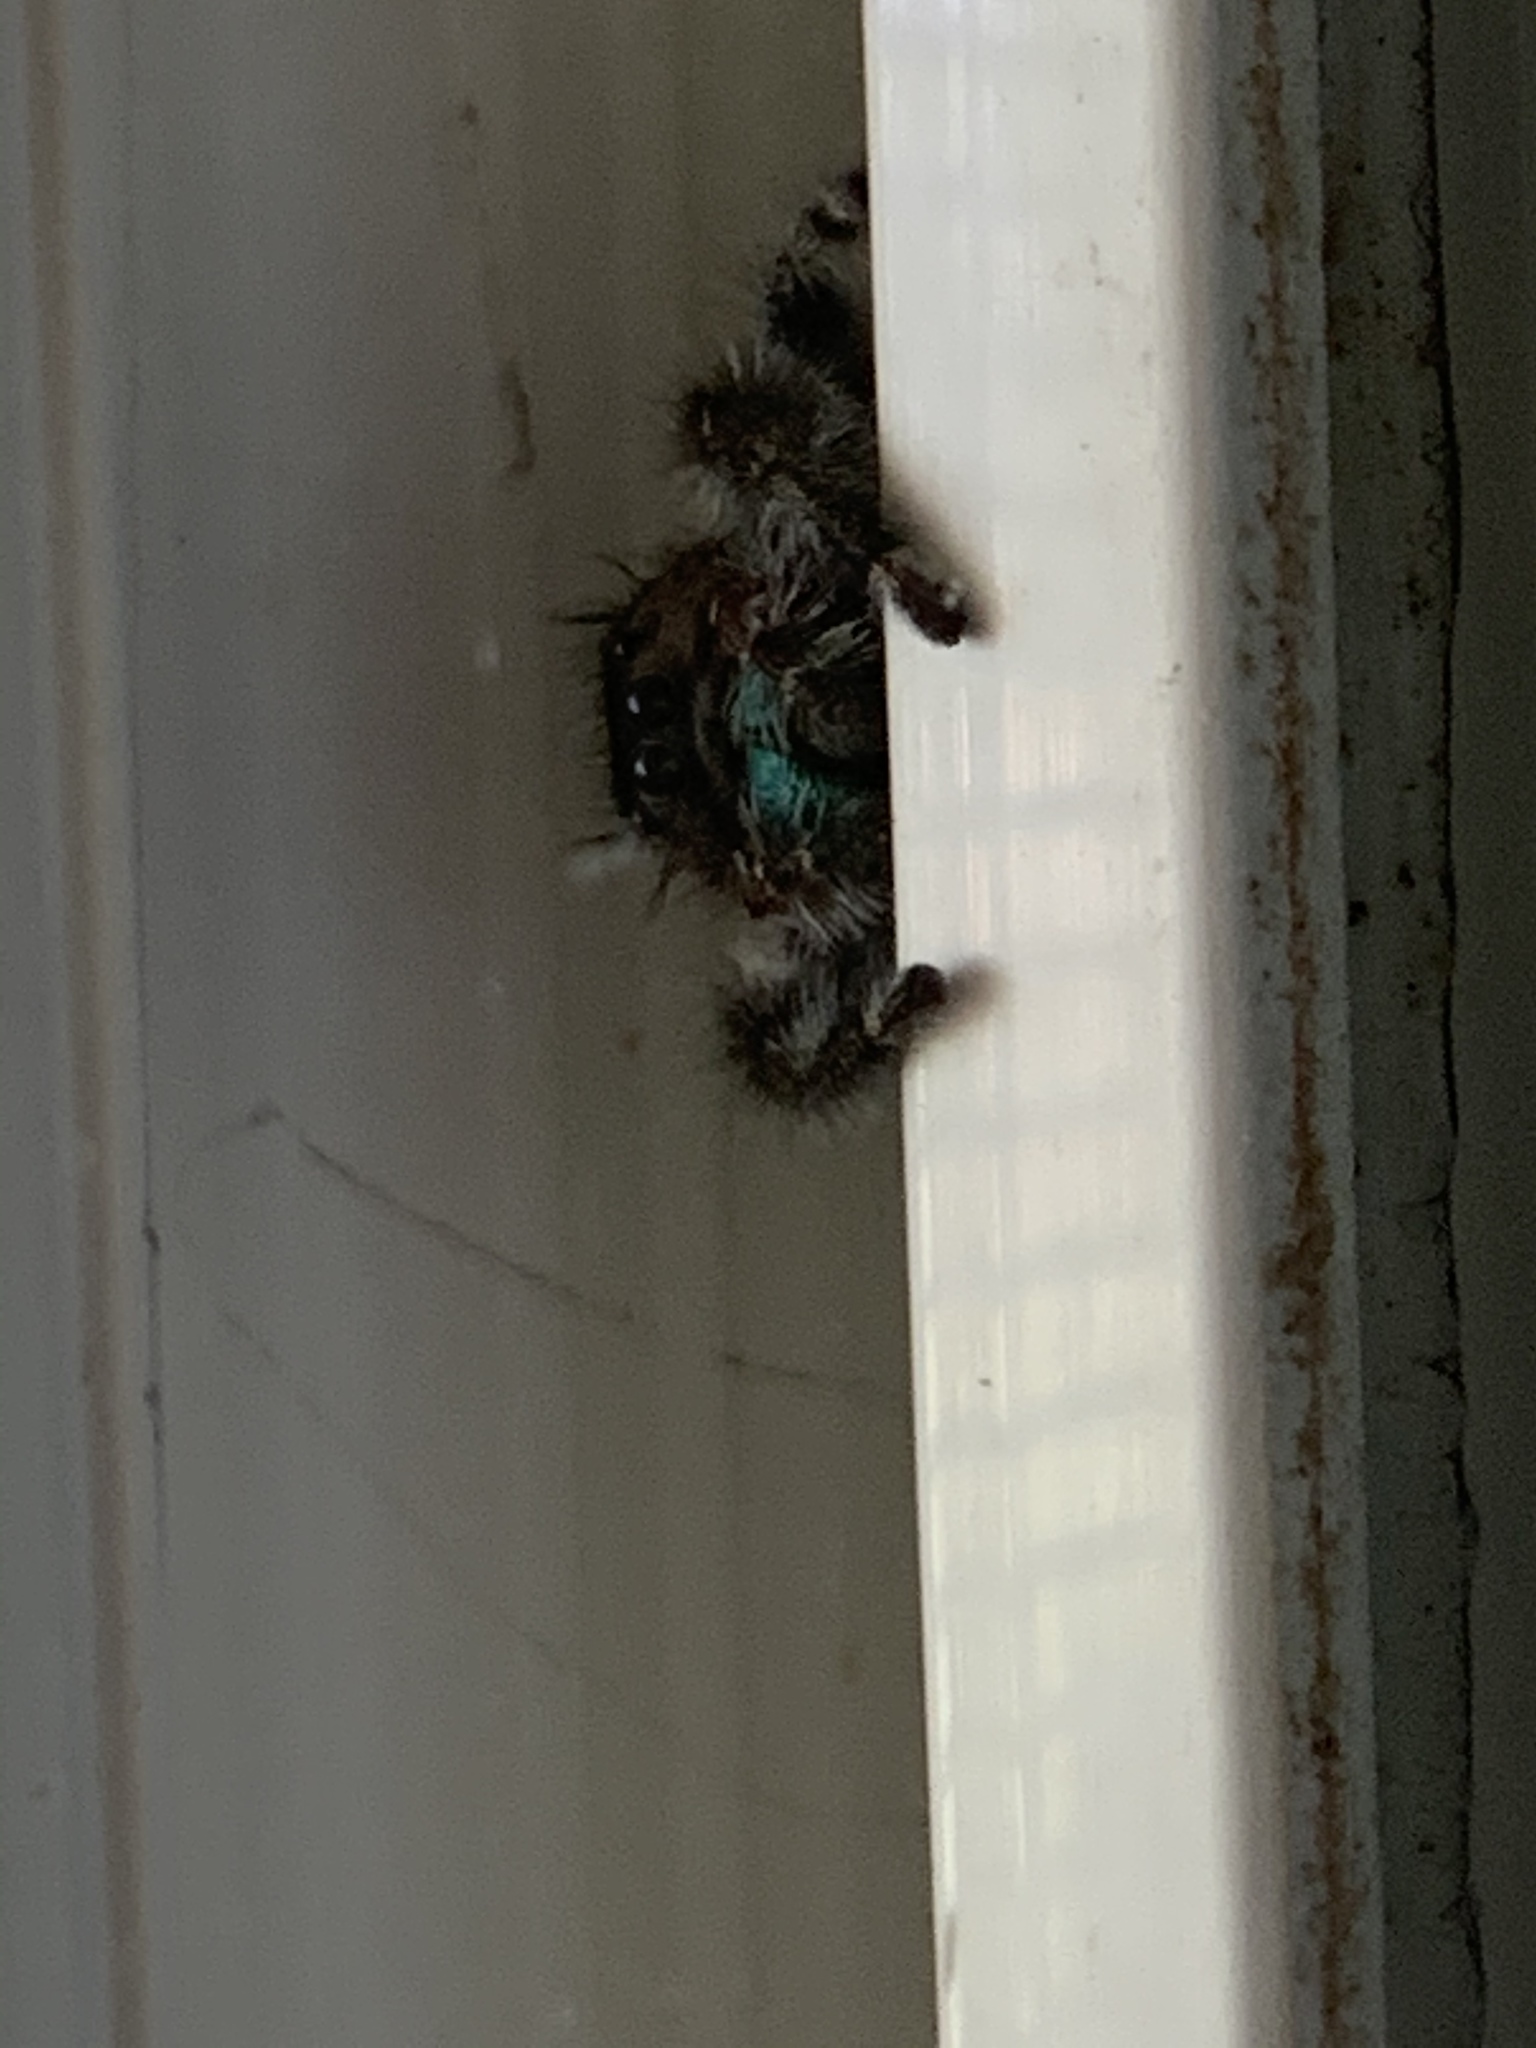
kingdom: Animalia
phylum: Arthropoda
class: Arachnida
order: Araneae
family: Salticidae
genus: Phidippus
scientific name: Phidippus audax
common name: Bold jumper
